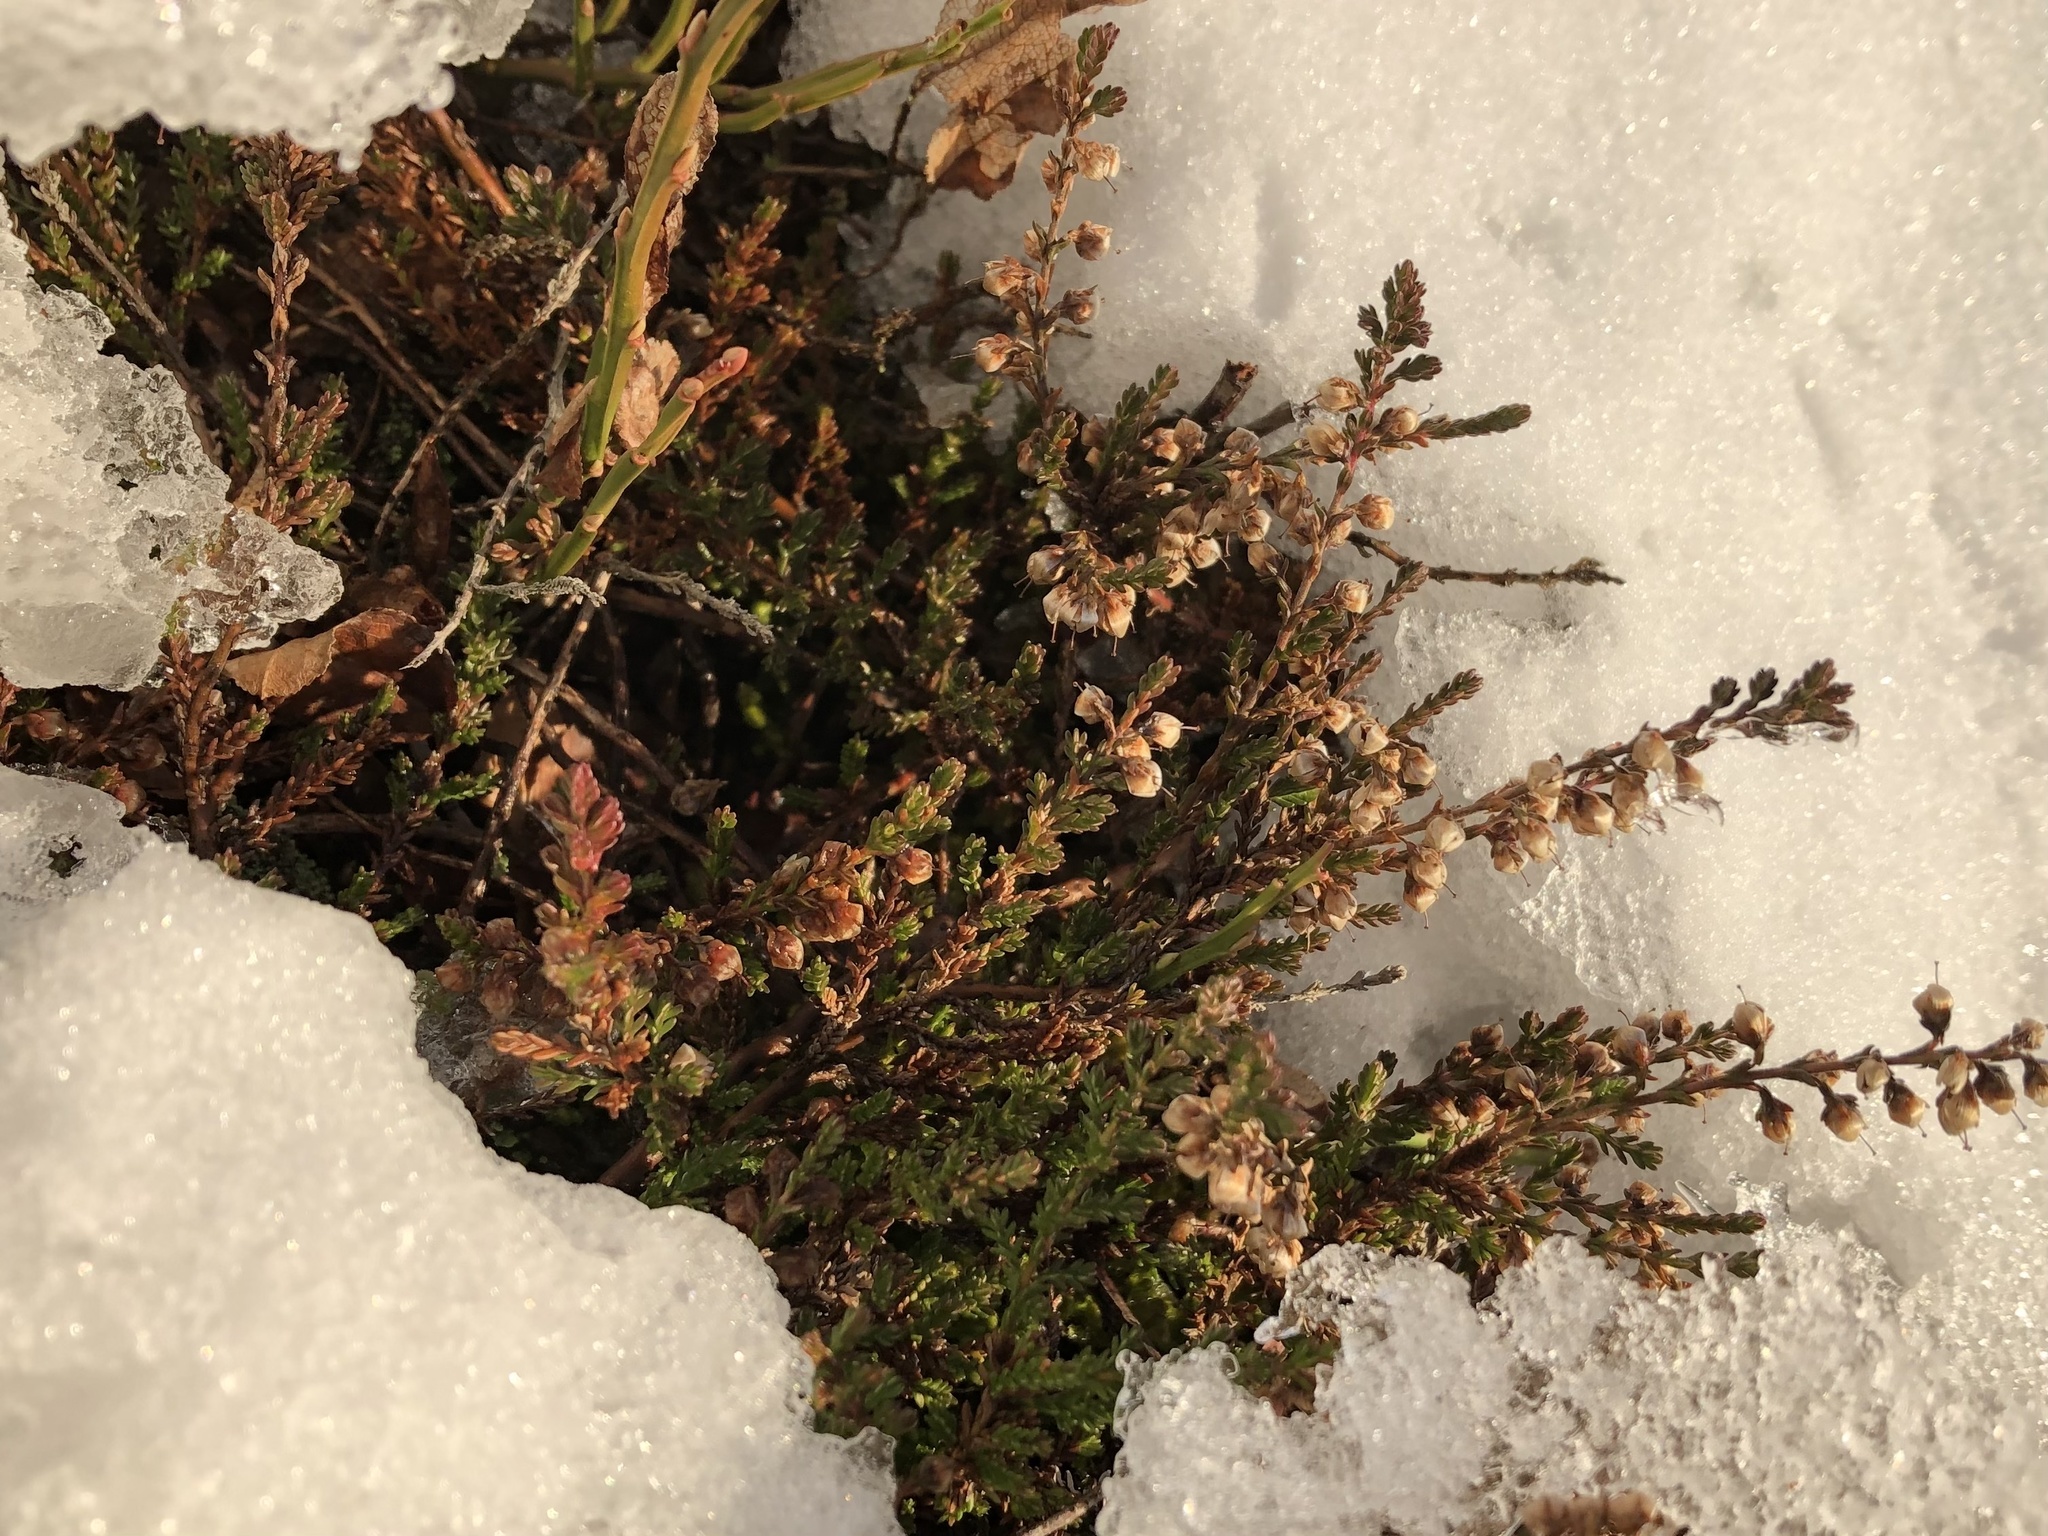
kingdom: Plantae
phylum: Tracheophyta
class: Magnoliopsida
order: Ericales
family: Ericaceae
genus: Calluna
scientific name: Calluna vulgaris
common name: Heather
